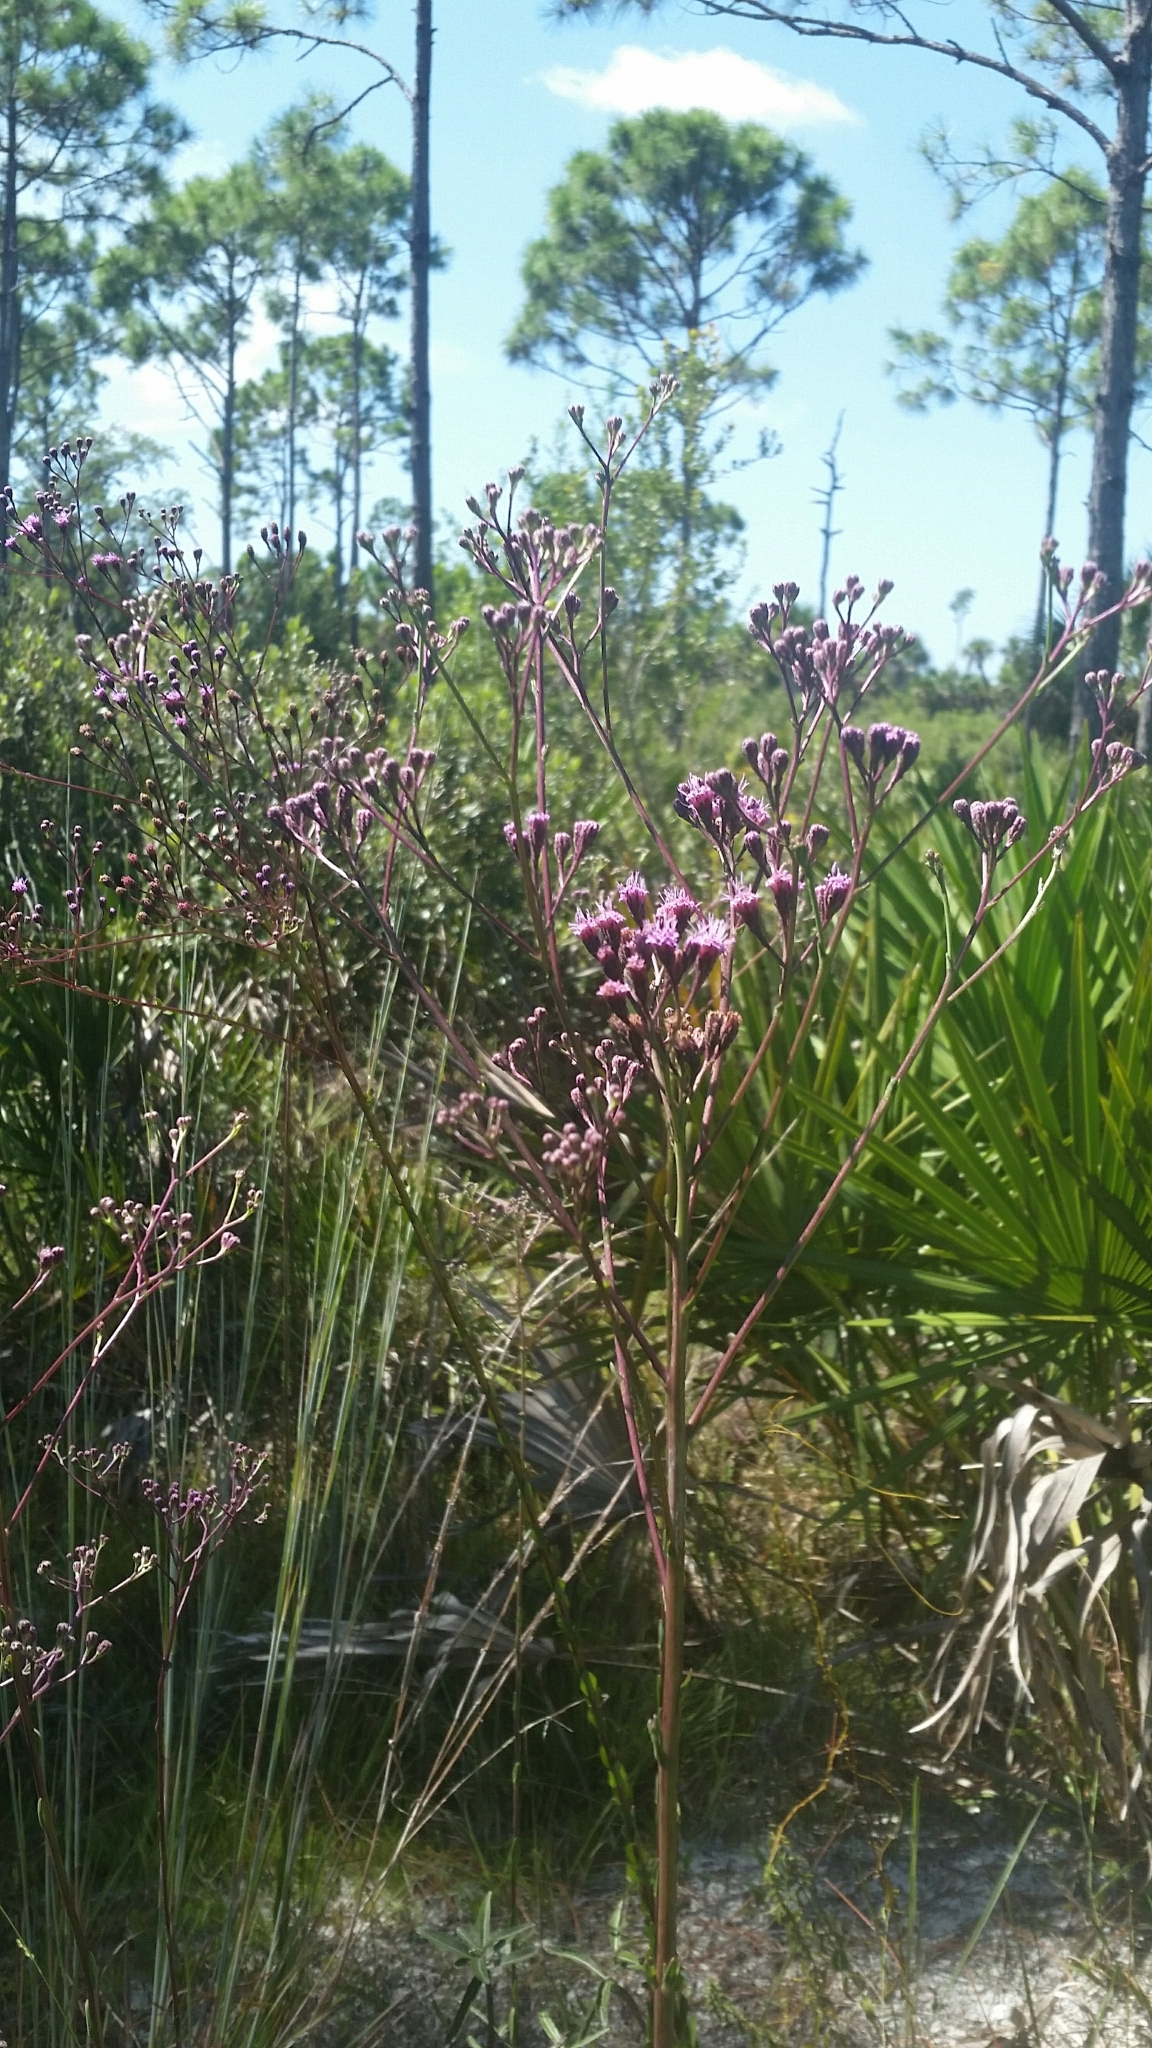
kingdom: Plantae
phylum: Tracheophyta
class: Magnoliopsida
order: Asterales
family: Asteraceae
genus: Carphephorus
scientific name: Carphephorus
